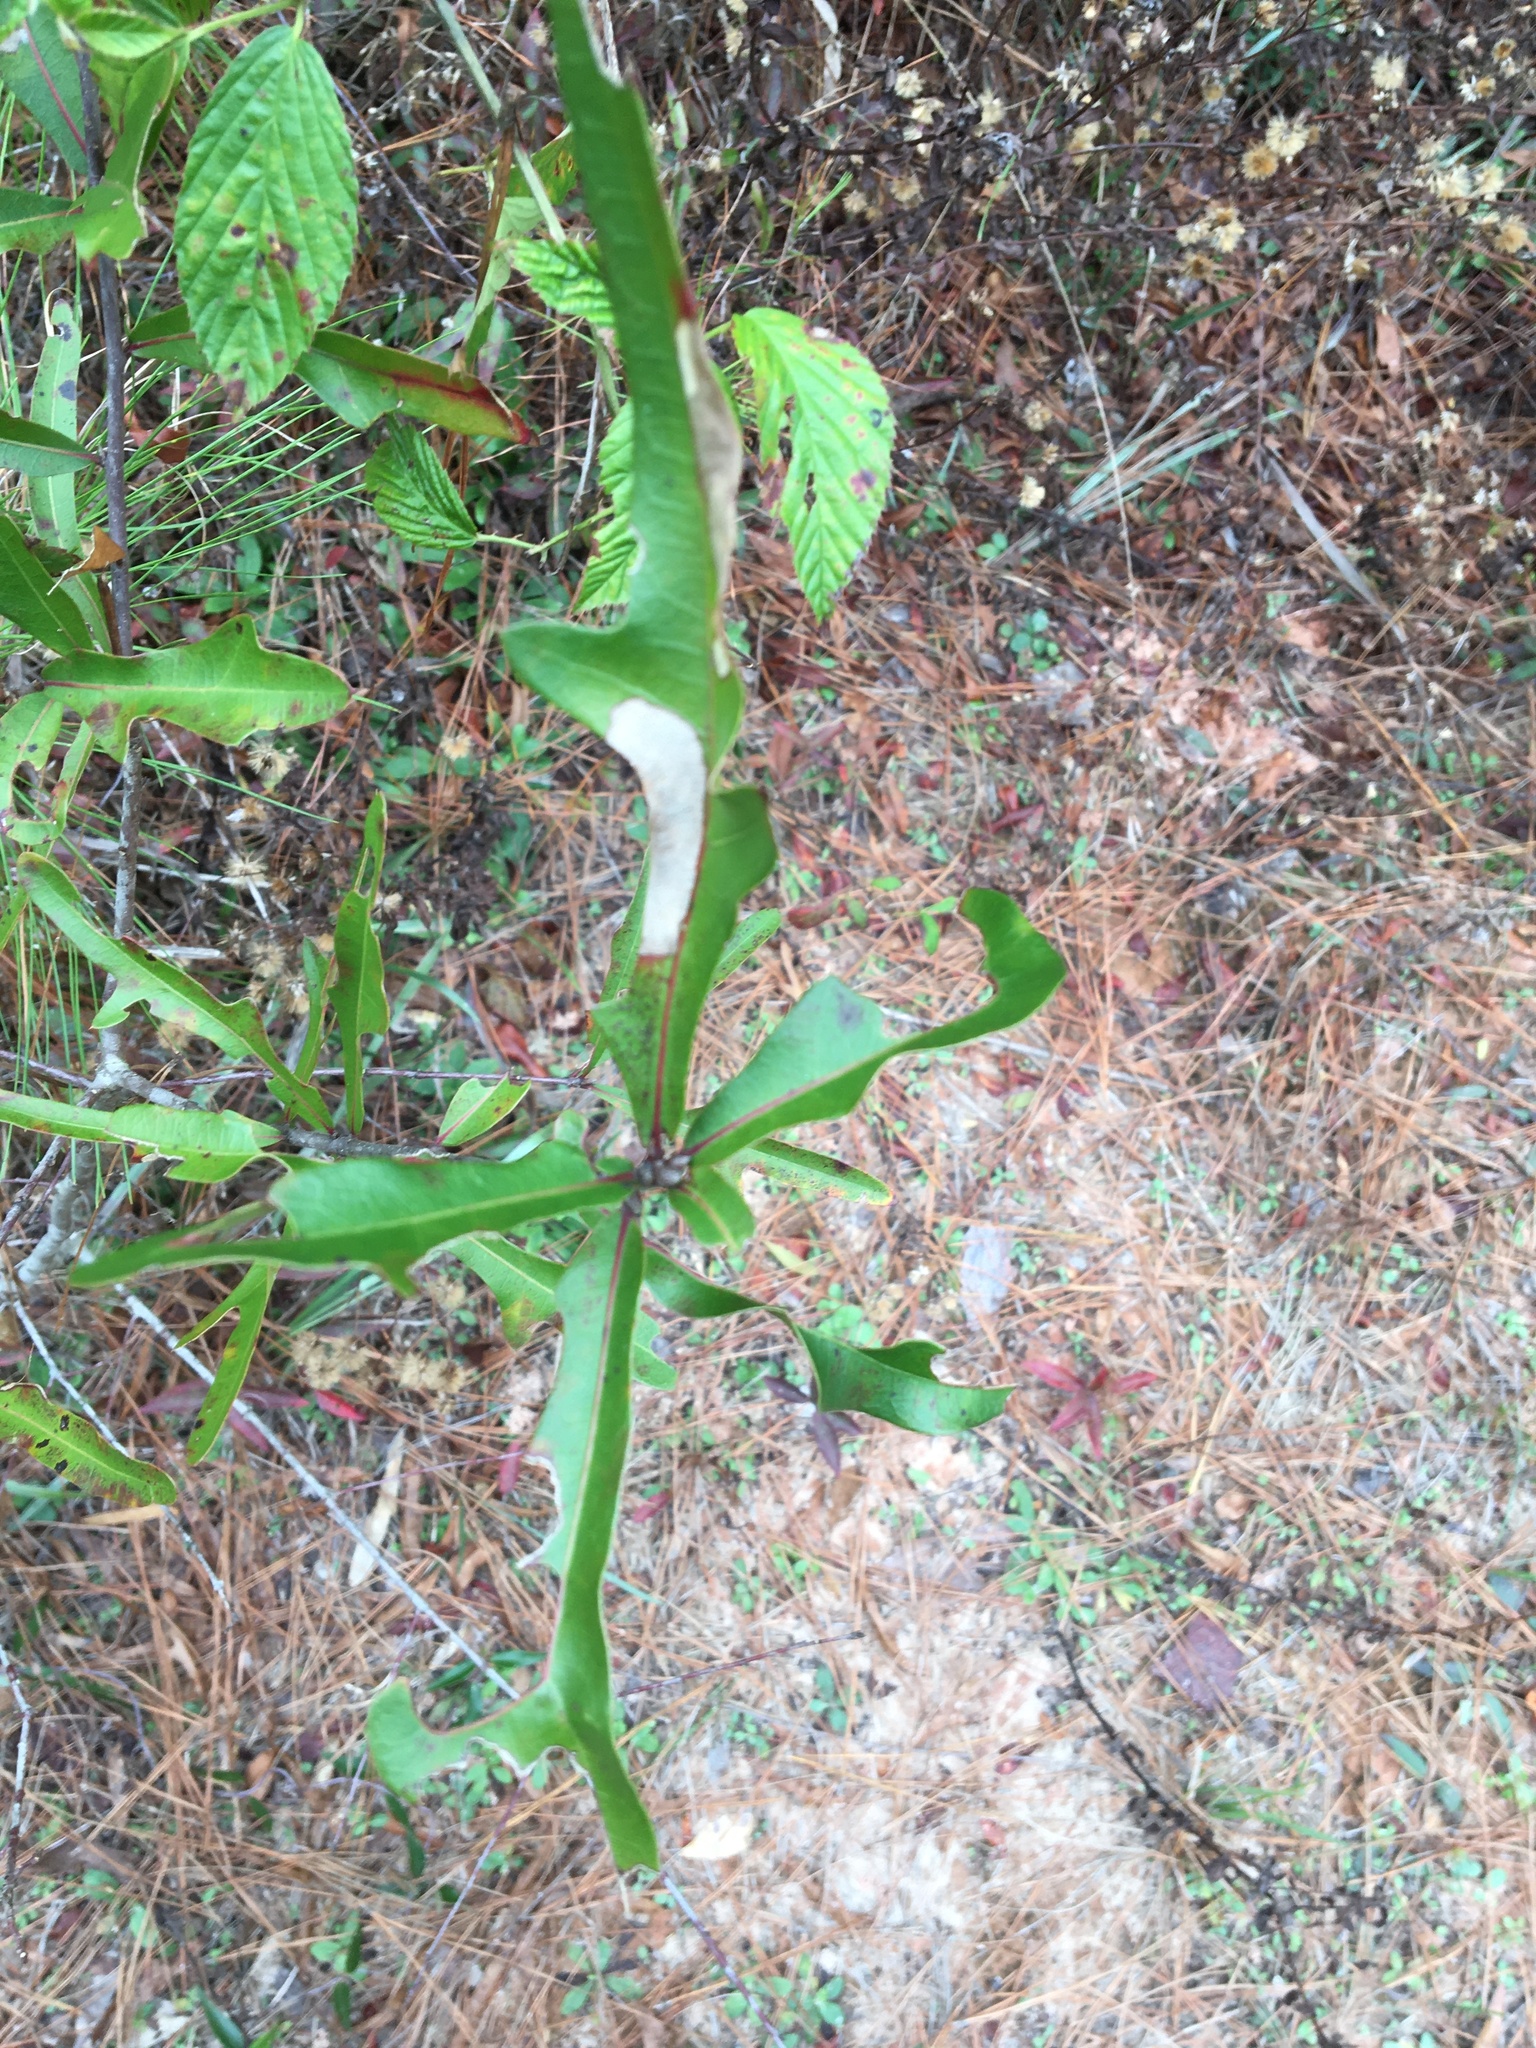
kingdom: Plantae
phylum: Tracheophyta
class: Magnoliopsida
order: Fagales
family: Fagaceae
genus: Quercus
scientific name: Quercus nigra
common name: Water oak
